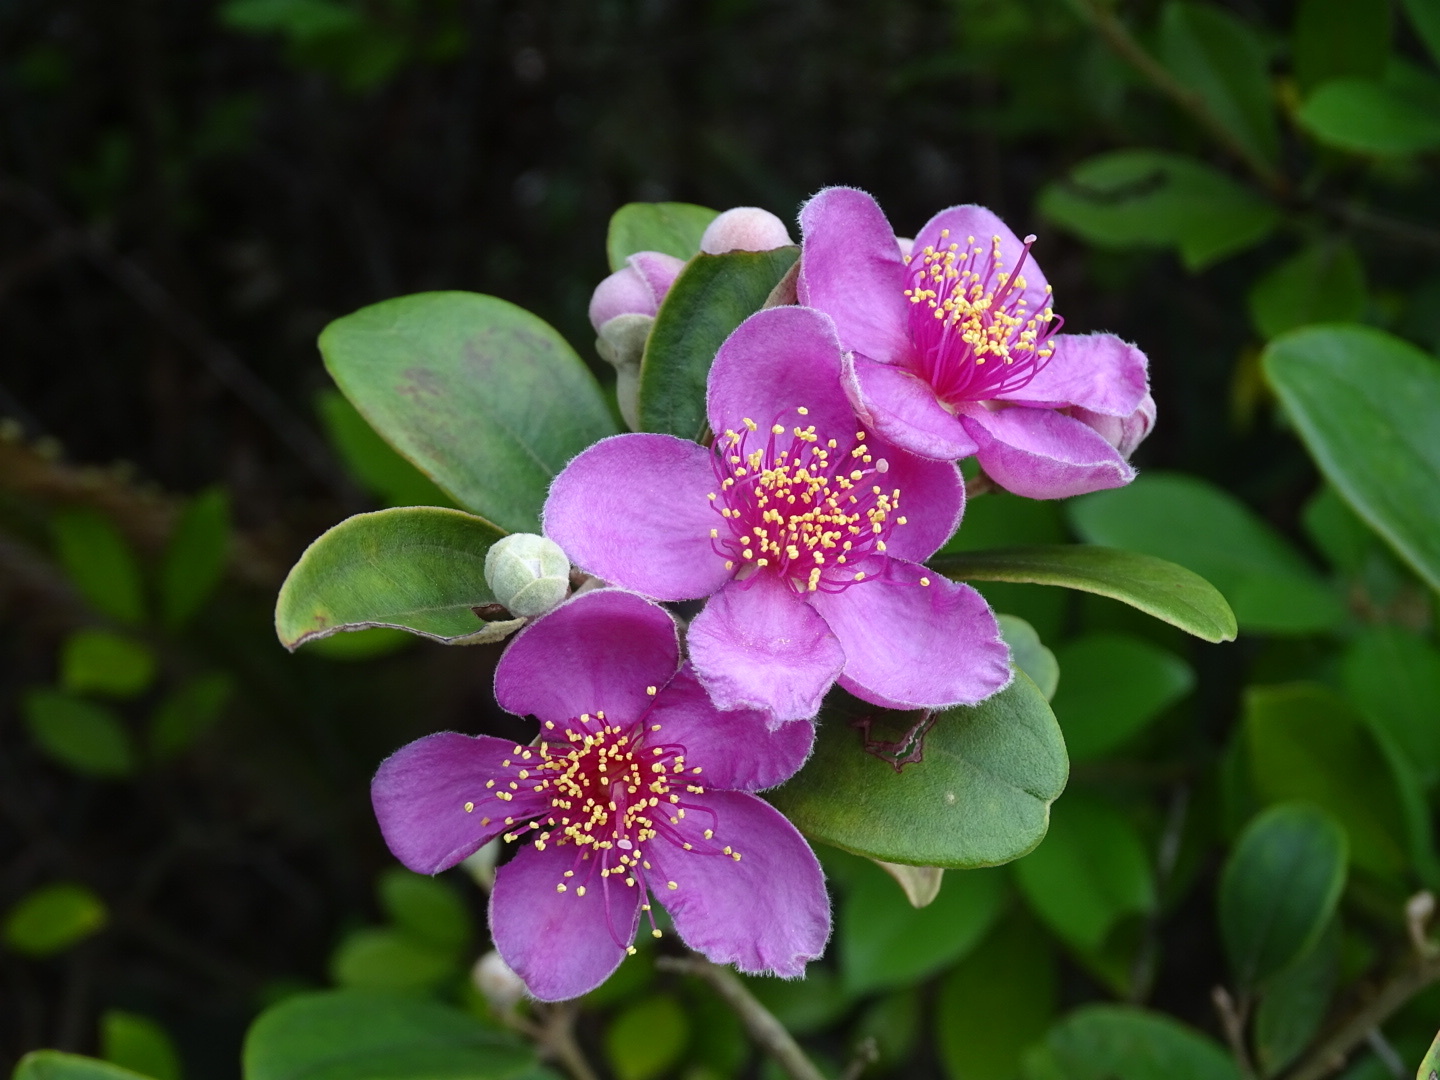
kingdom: Plantae
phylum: Tracheophyta
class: Magnoliopsida
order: Myrtales
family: Myrtaceae
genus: Rhodomyrtus
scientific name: Rhodomyrtus tomentosa
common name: Rose myrtle
